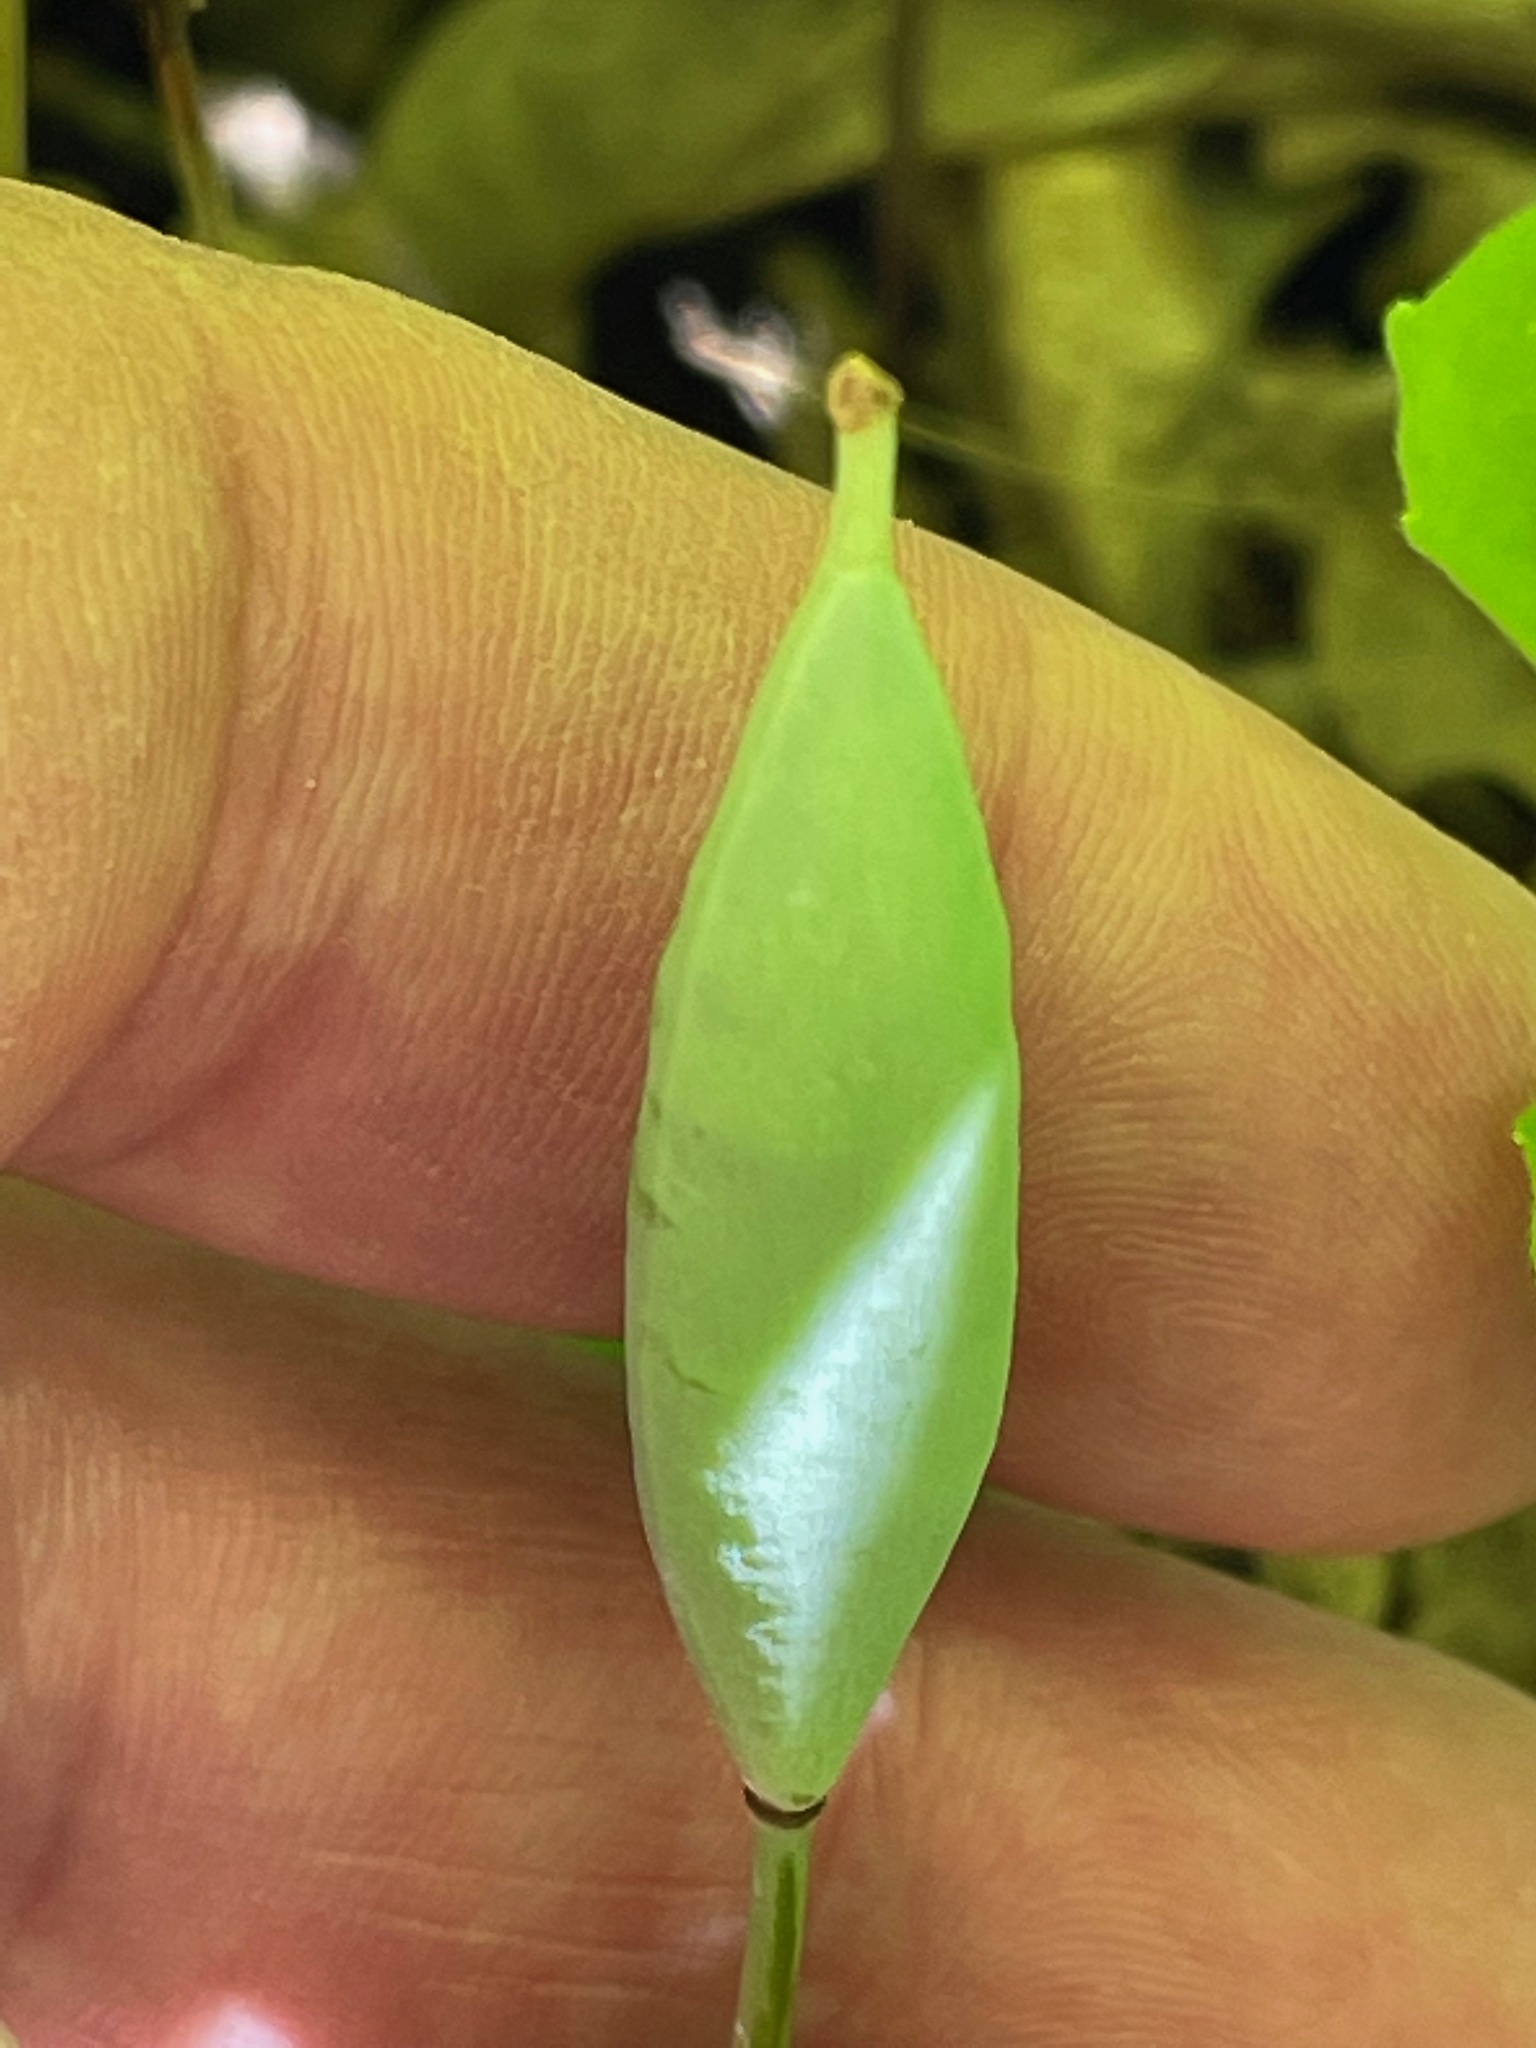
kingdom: Plantae
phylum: Tracheophyta
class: Magnoliopsida
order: Ranunculales
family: Papaveraceae
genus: Sanguinaria
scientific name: Sanguinaria canadensis
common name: Bloodroot
